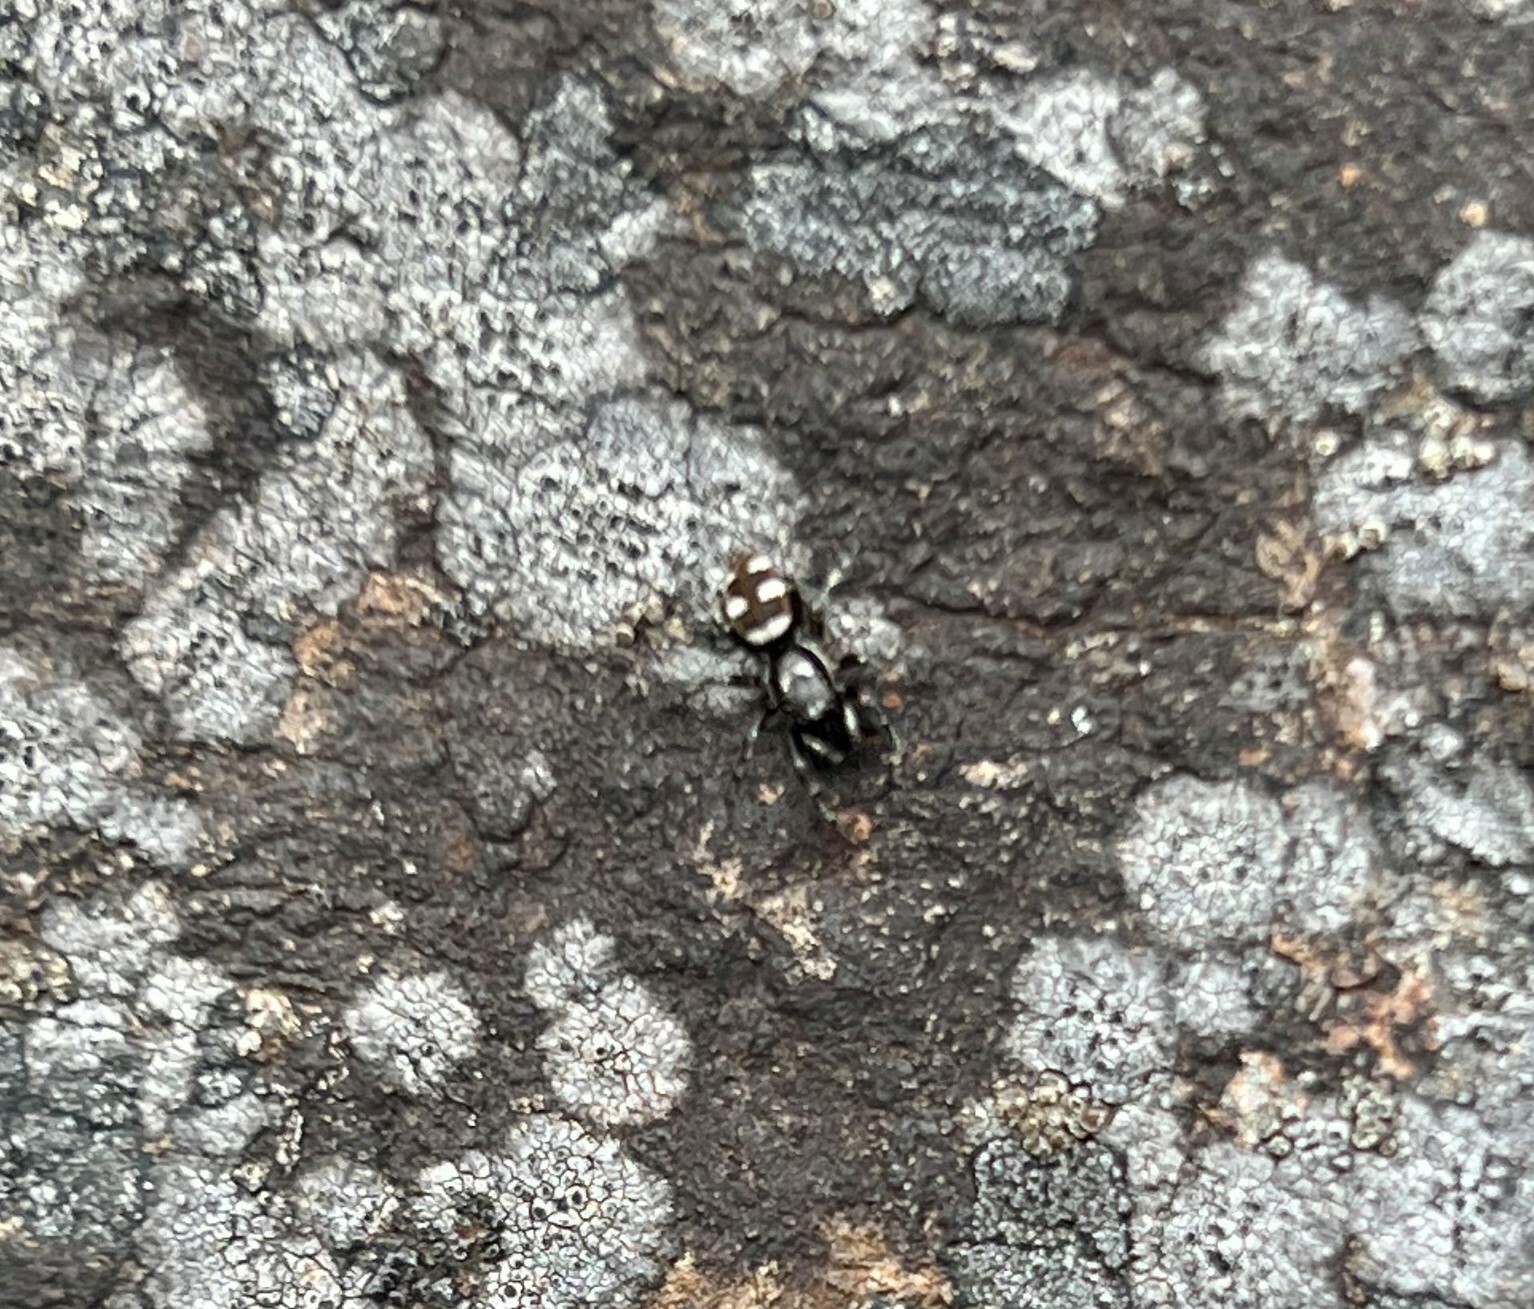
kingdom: Animalia
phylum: Arthropoda
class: Arachnida
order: Araneae
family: Salticidae
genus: Salticus
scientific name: Salticus scenicus
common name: Zebra jumper
